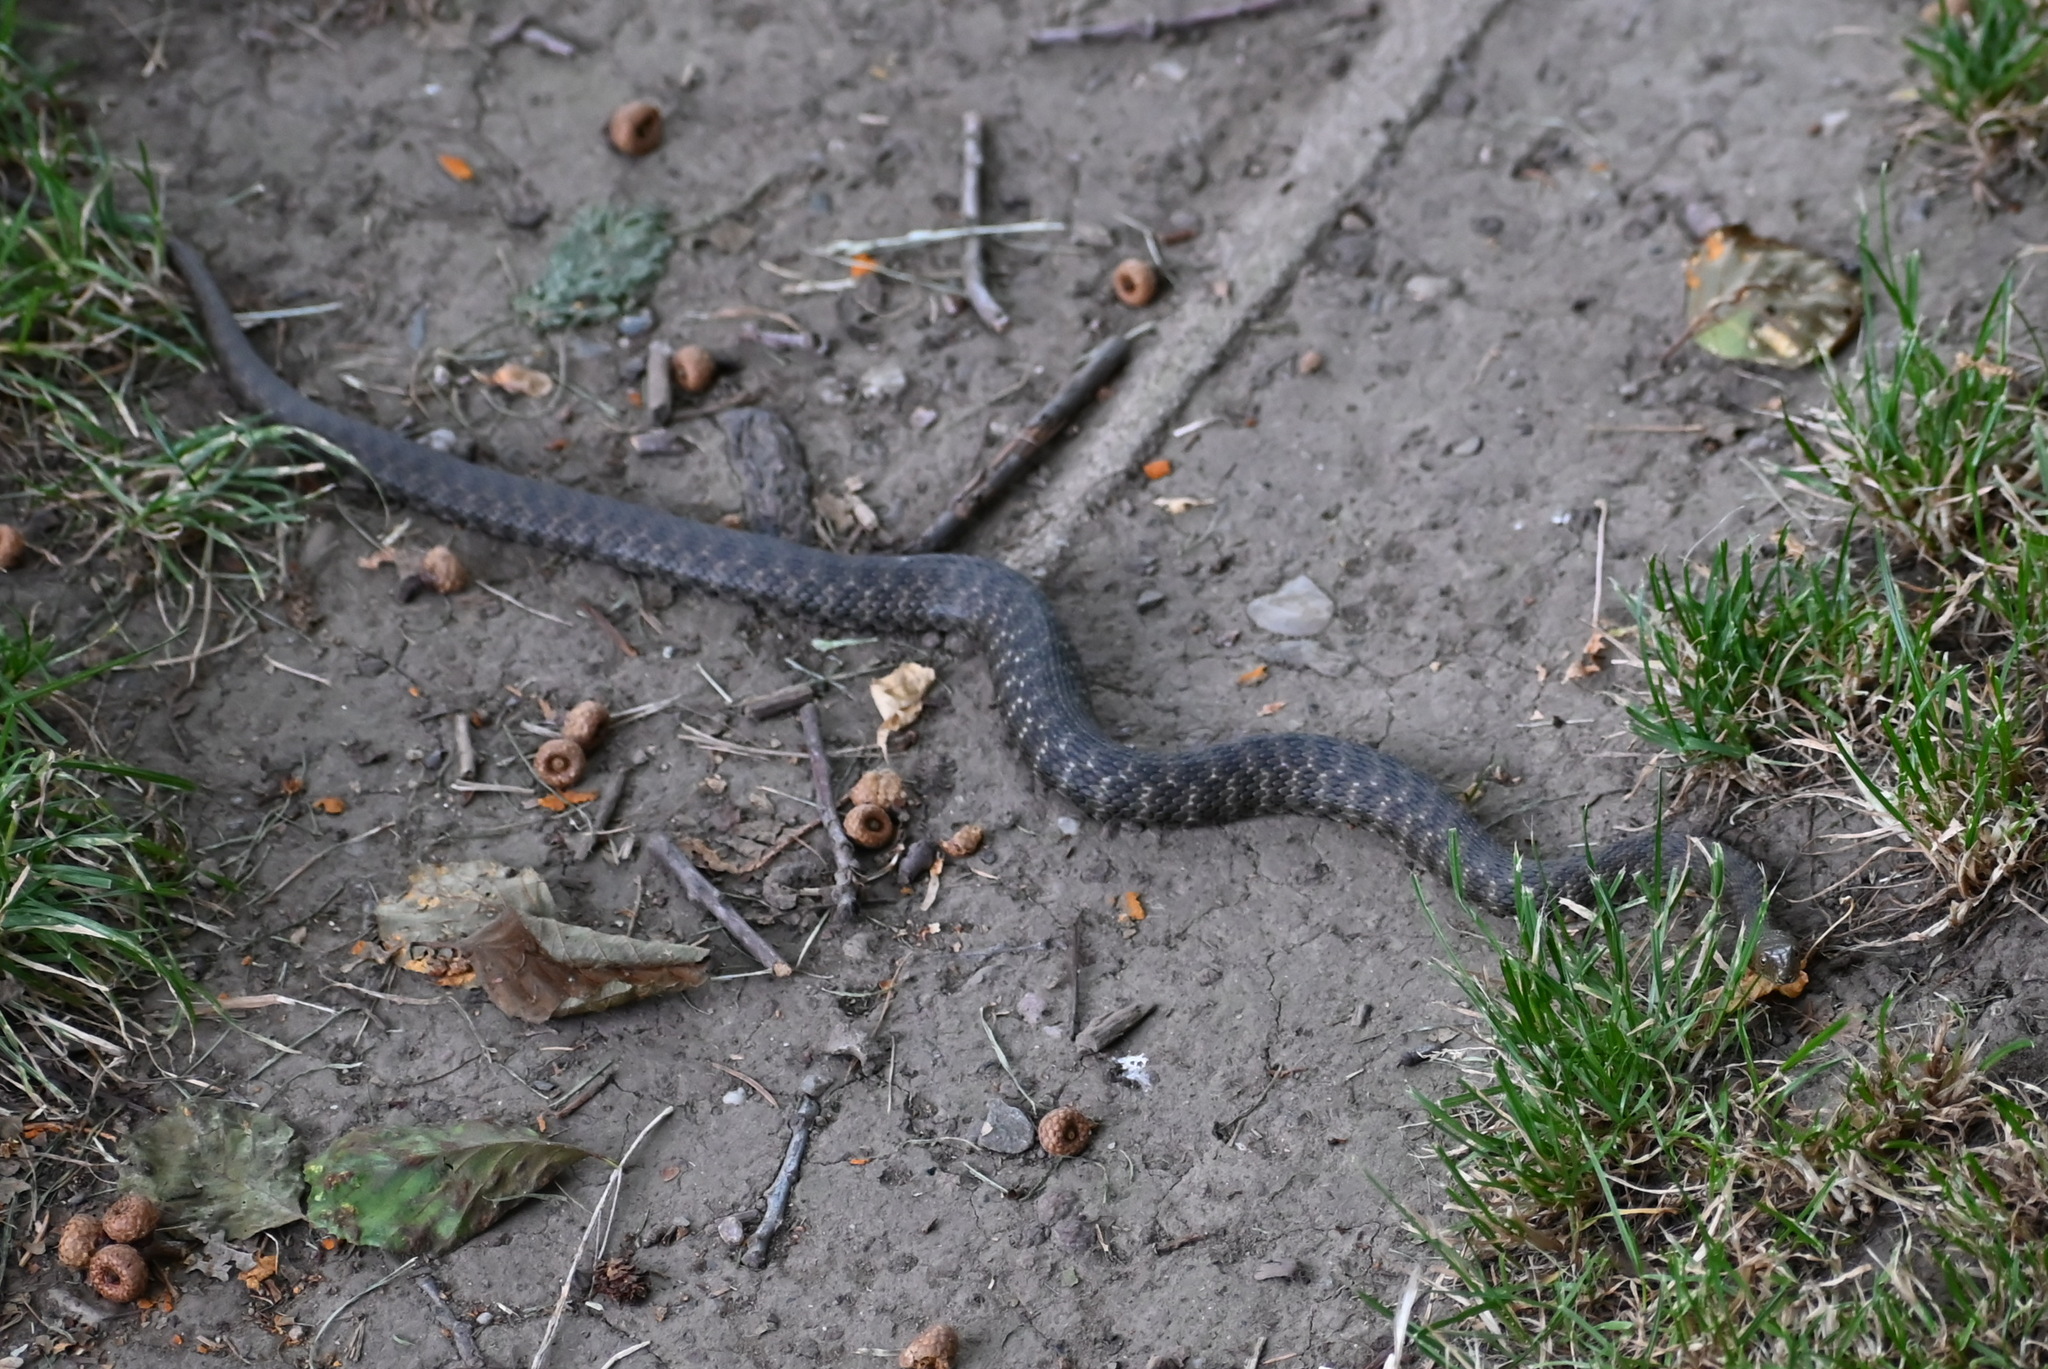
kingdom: Animalia
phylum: Chordata
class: Squamata
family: Colubridae
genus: Natrix
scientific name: Natrix tessellata
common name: Dice snake
